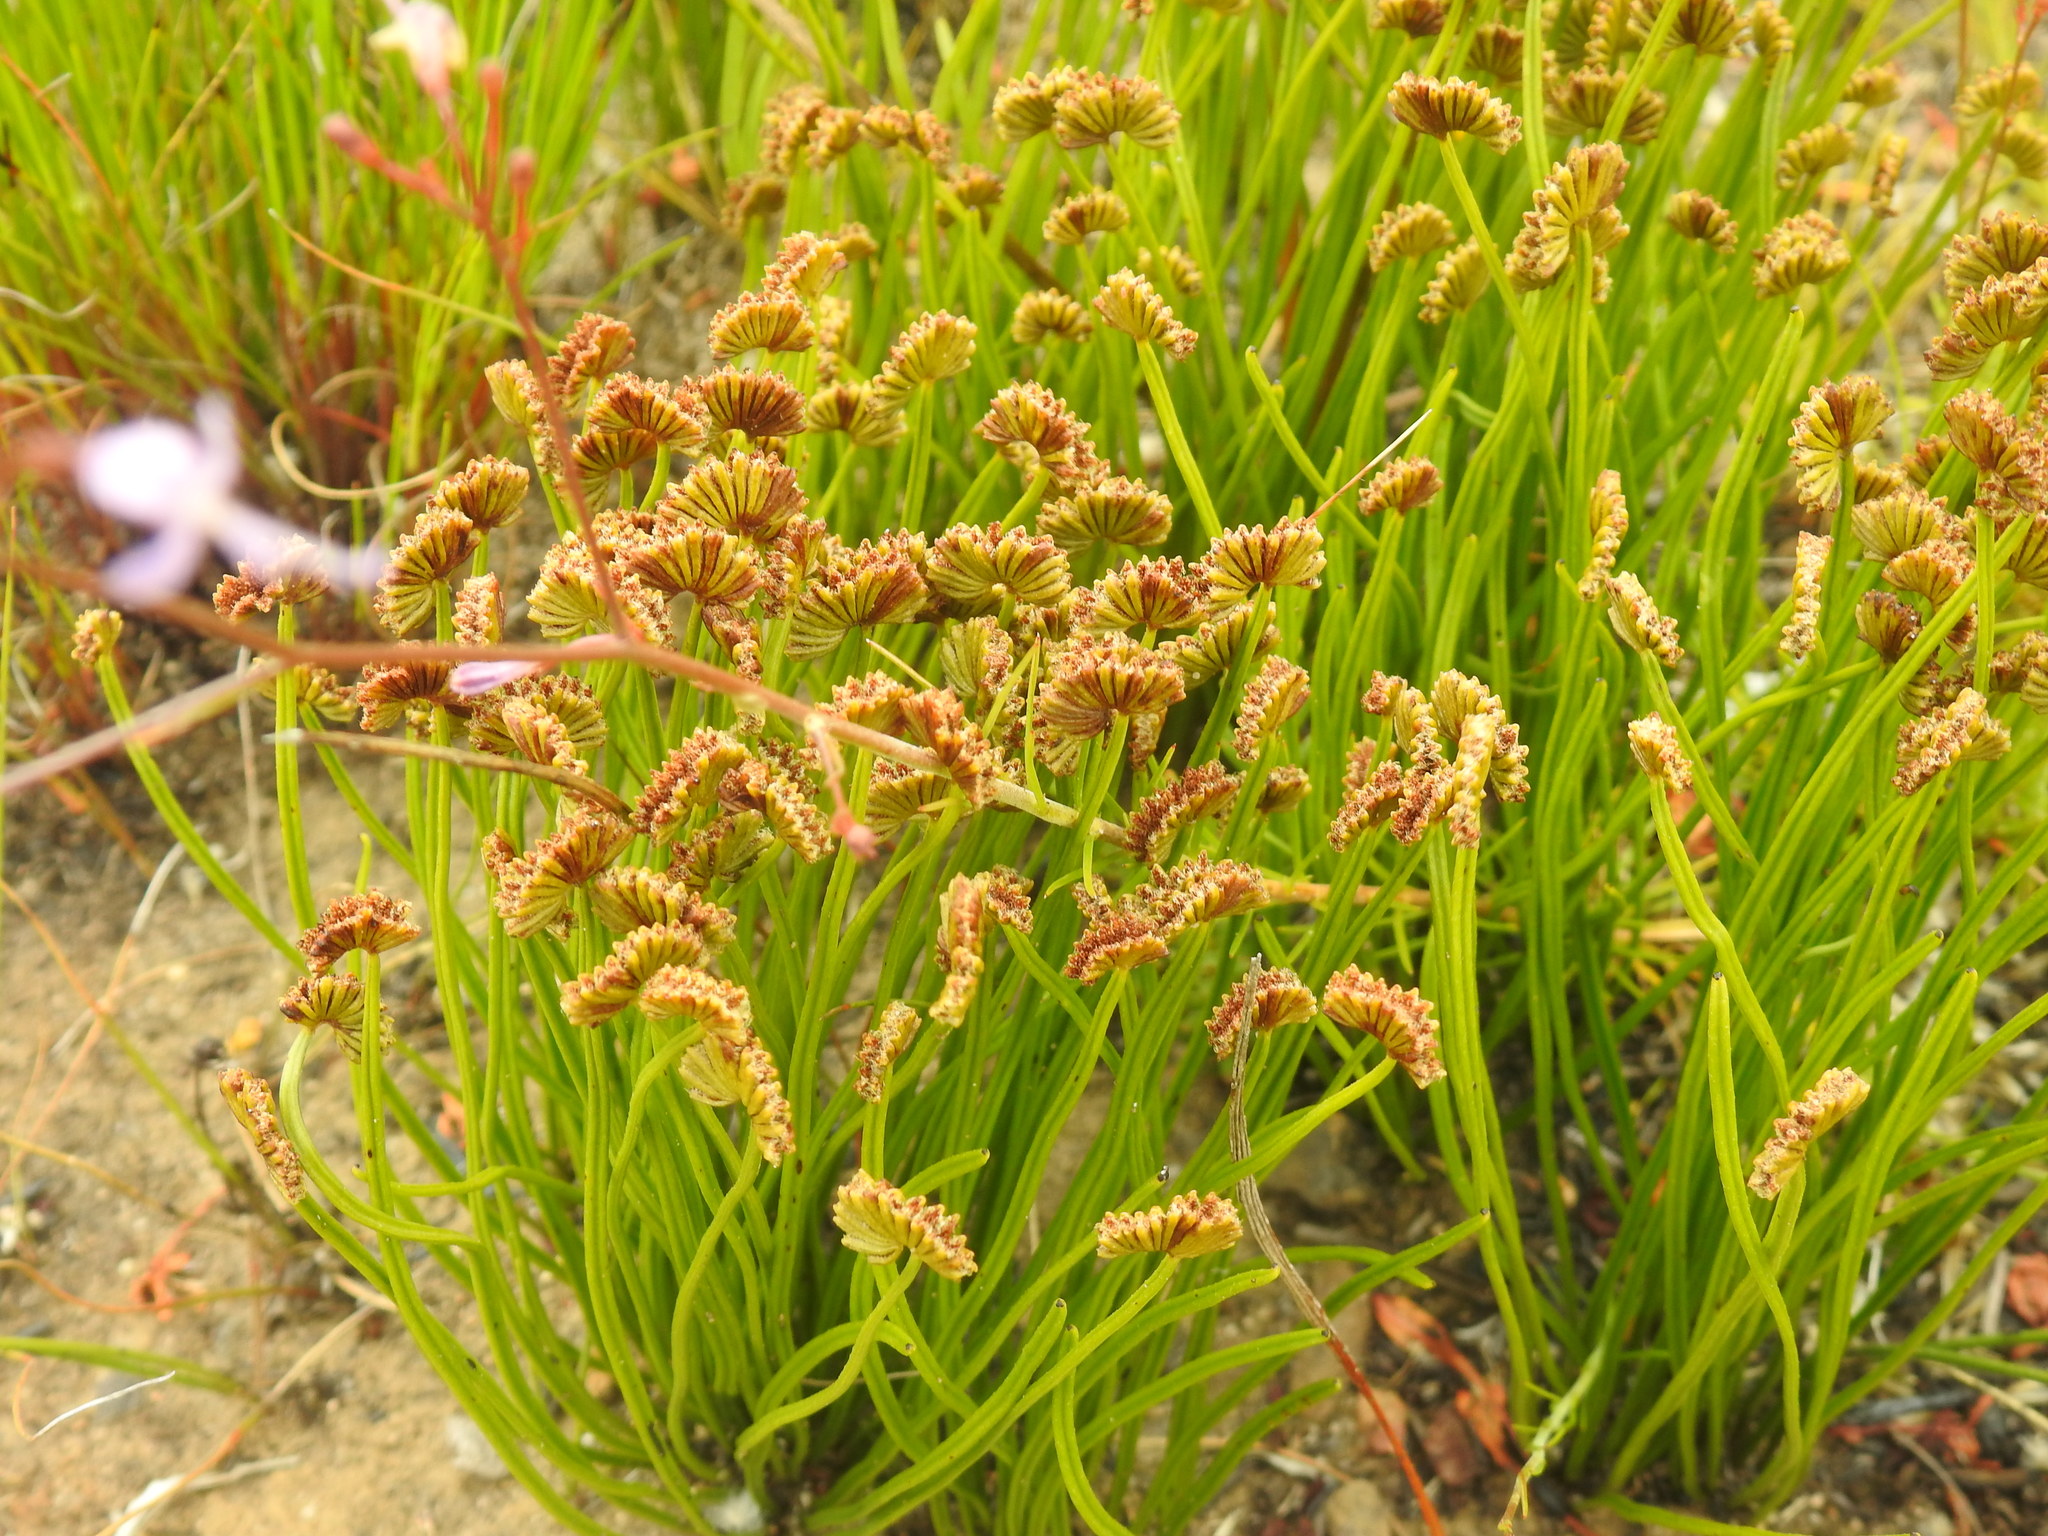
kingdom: Plantae
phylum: Tracheophyta
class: Polypodiopsida
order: Schizaeales
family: Schizaeaceae
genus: Schizaea
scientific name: Schizaea pectinata
